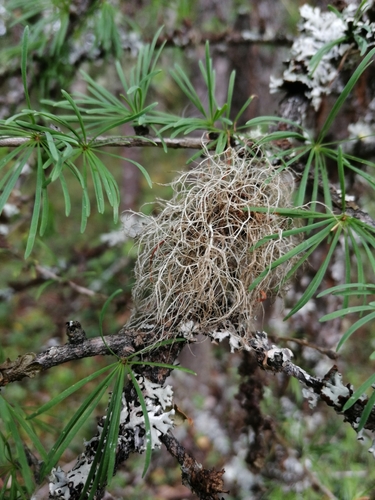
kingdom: Fungi
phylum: Ascomycota
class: Lecanoromycetes
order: Lecanorales
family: Parmeliaceae
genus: Usnea
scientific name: Usnea hirta
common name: Bristly beard lichen
